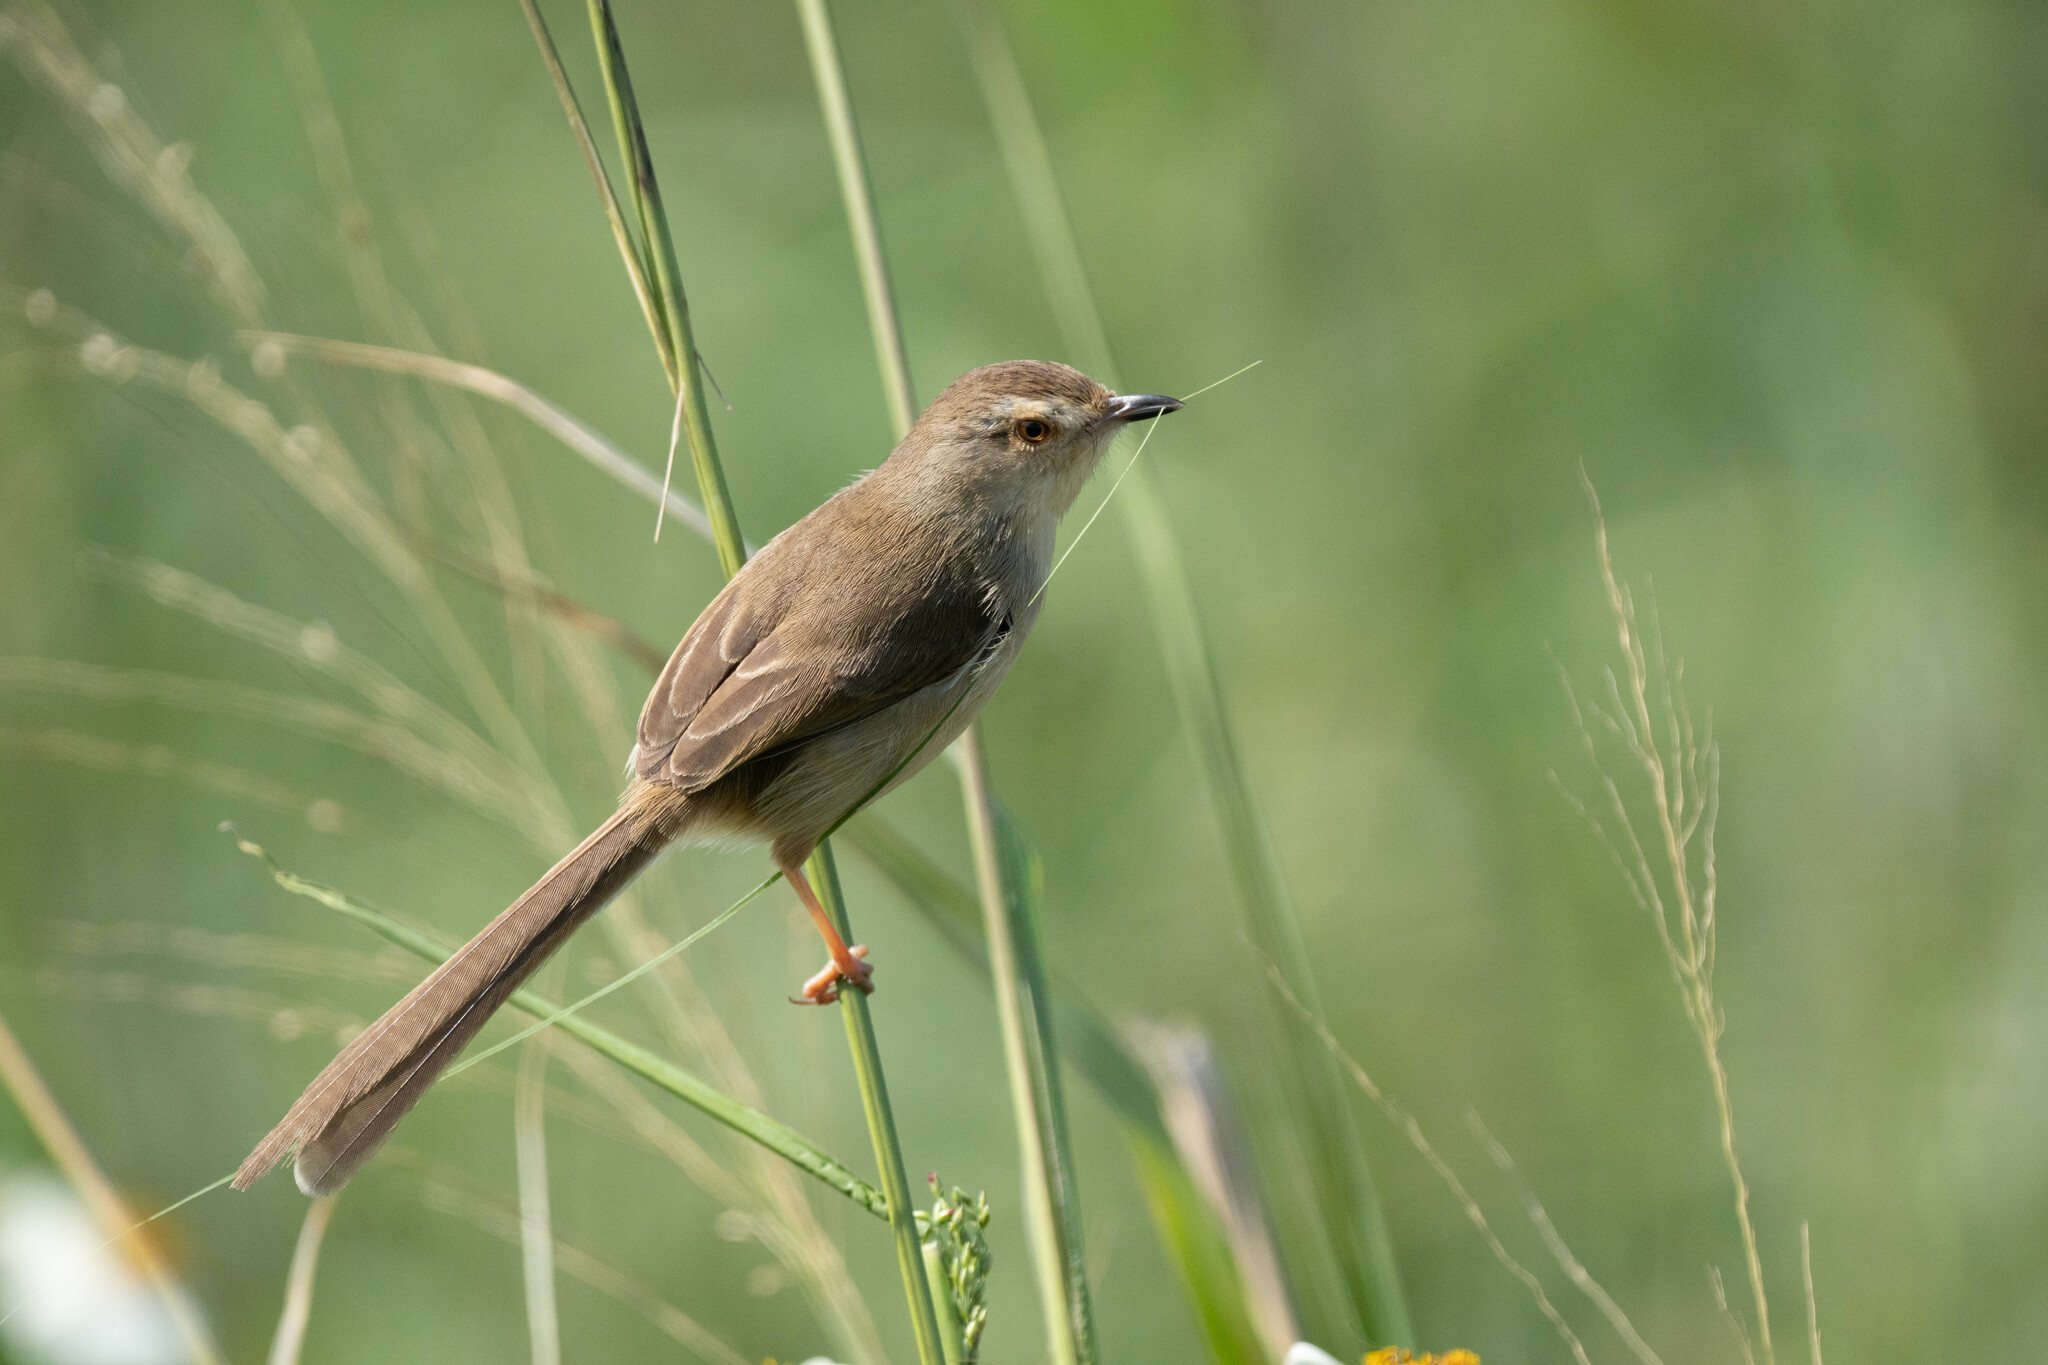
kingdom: Animalia
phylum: Chordata
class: Aves
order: Passeriformes
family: Cisticolidae
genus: Prinia
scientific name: Prinia inornata
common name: Plain prinia
